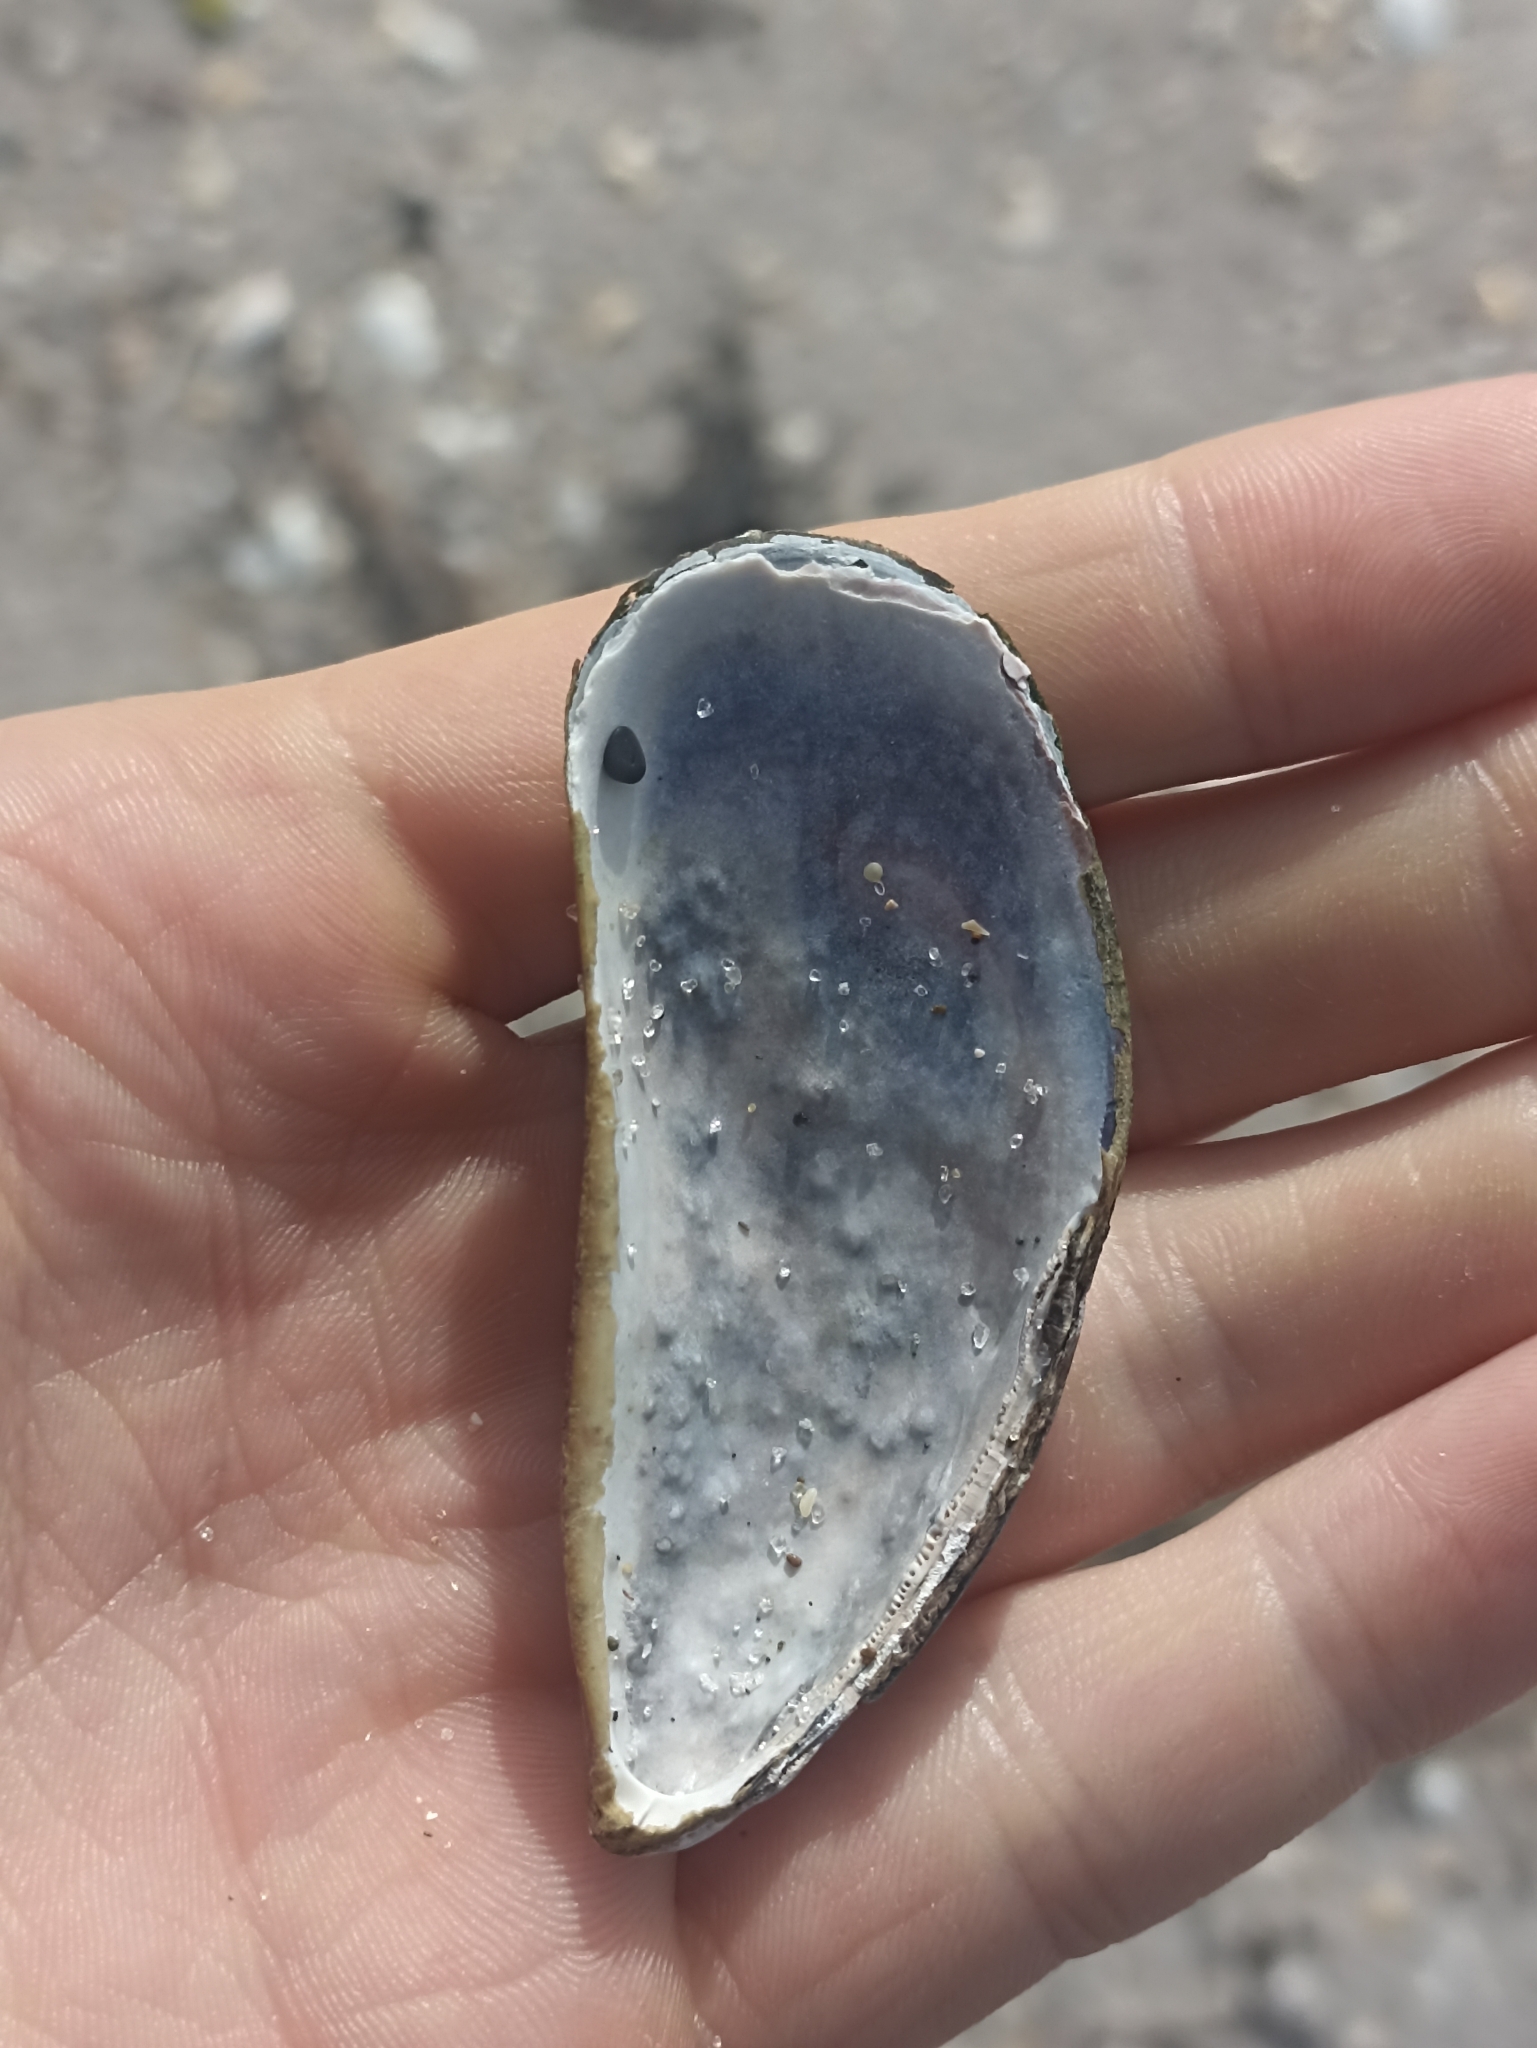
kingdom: Animalia
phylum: Mollusca
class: Bivalvia
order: Mytilida
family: Mytilidae
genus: Perna
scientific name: Perna canaliculus
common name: New zealand greenshelltm
